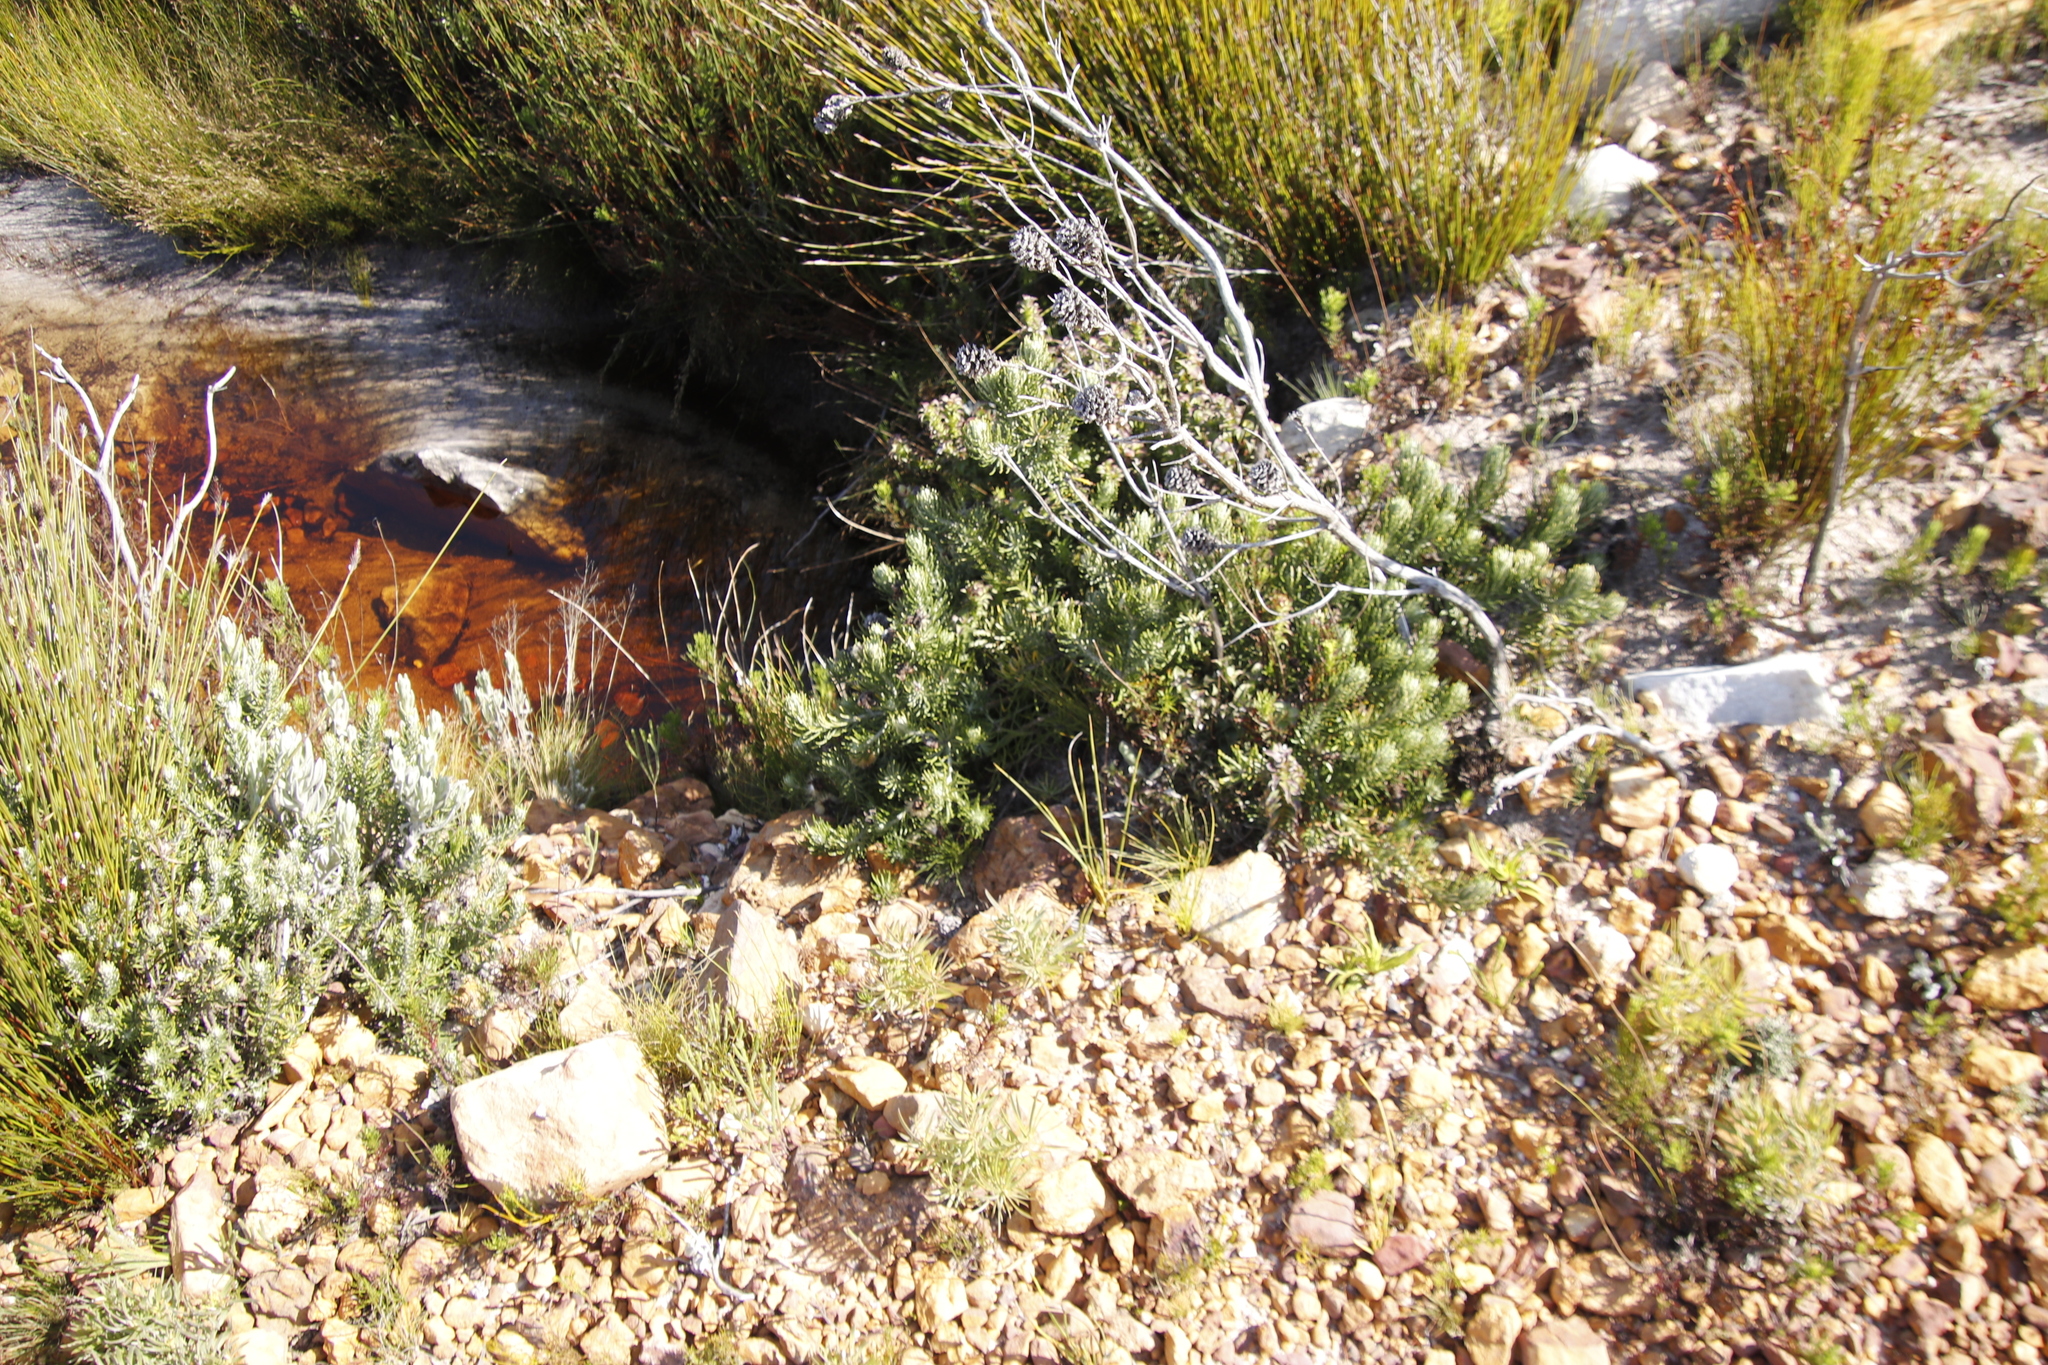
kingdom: Plantae
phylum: Tracheophyta
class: Magnoliopsida
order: Asterales
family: Asteraceae
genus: Heterolepis
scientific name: Heterolepis aliena
